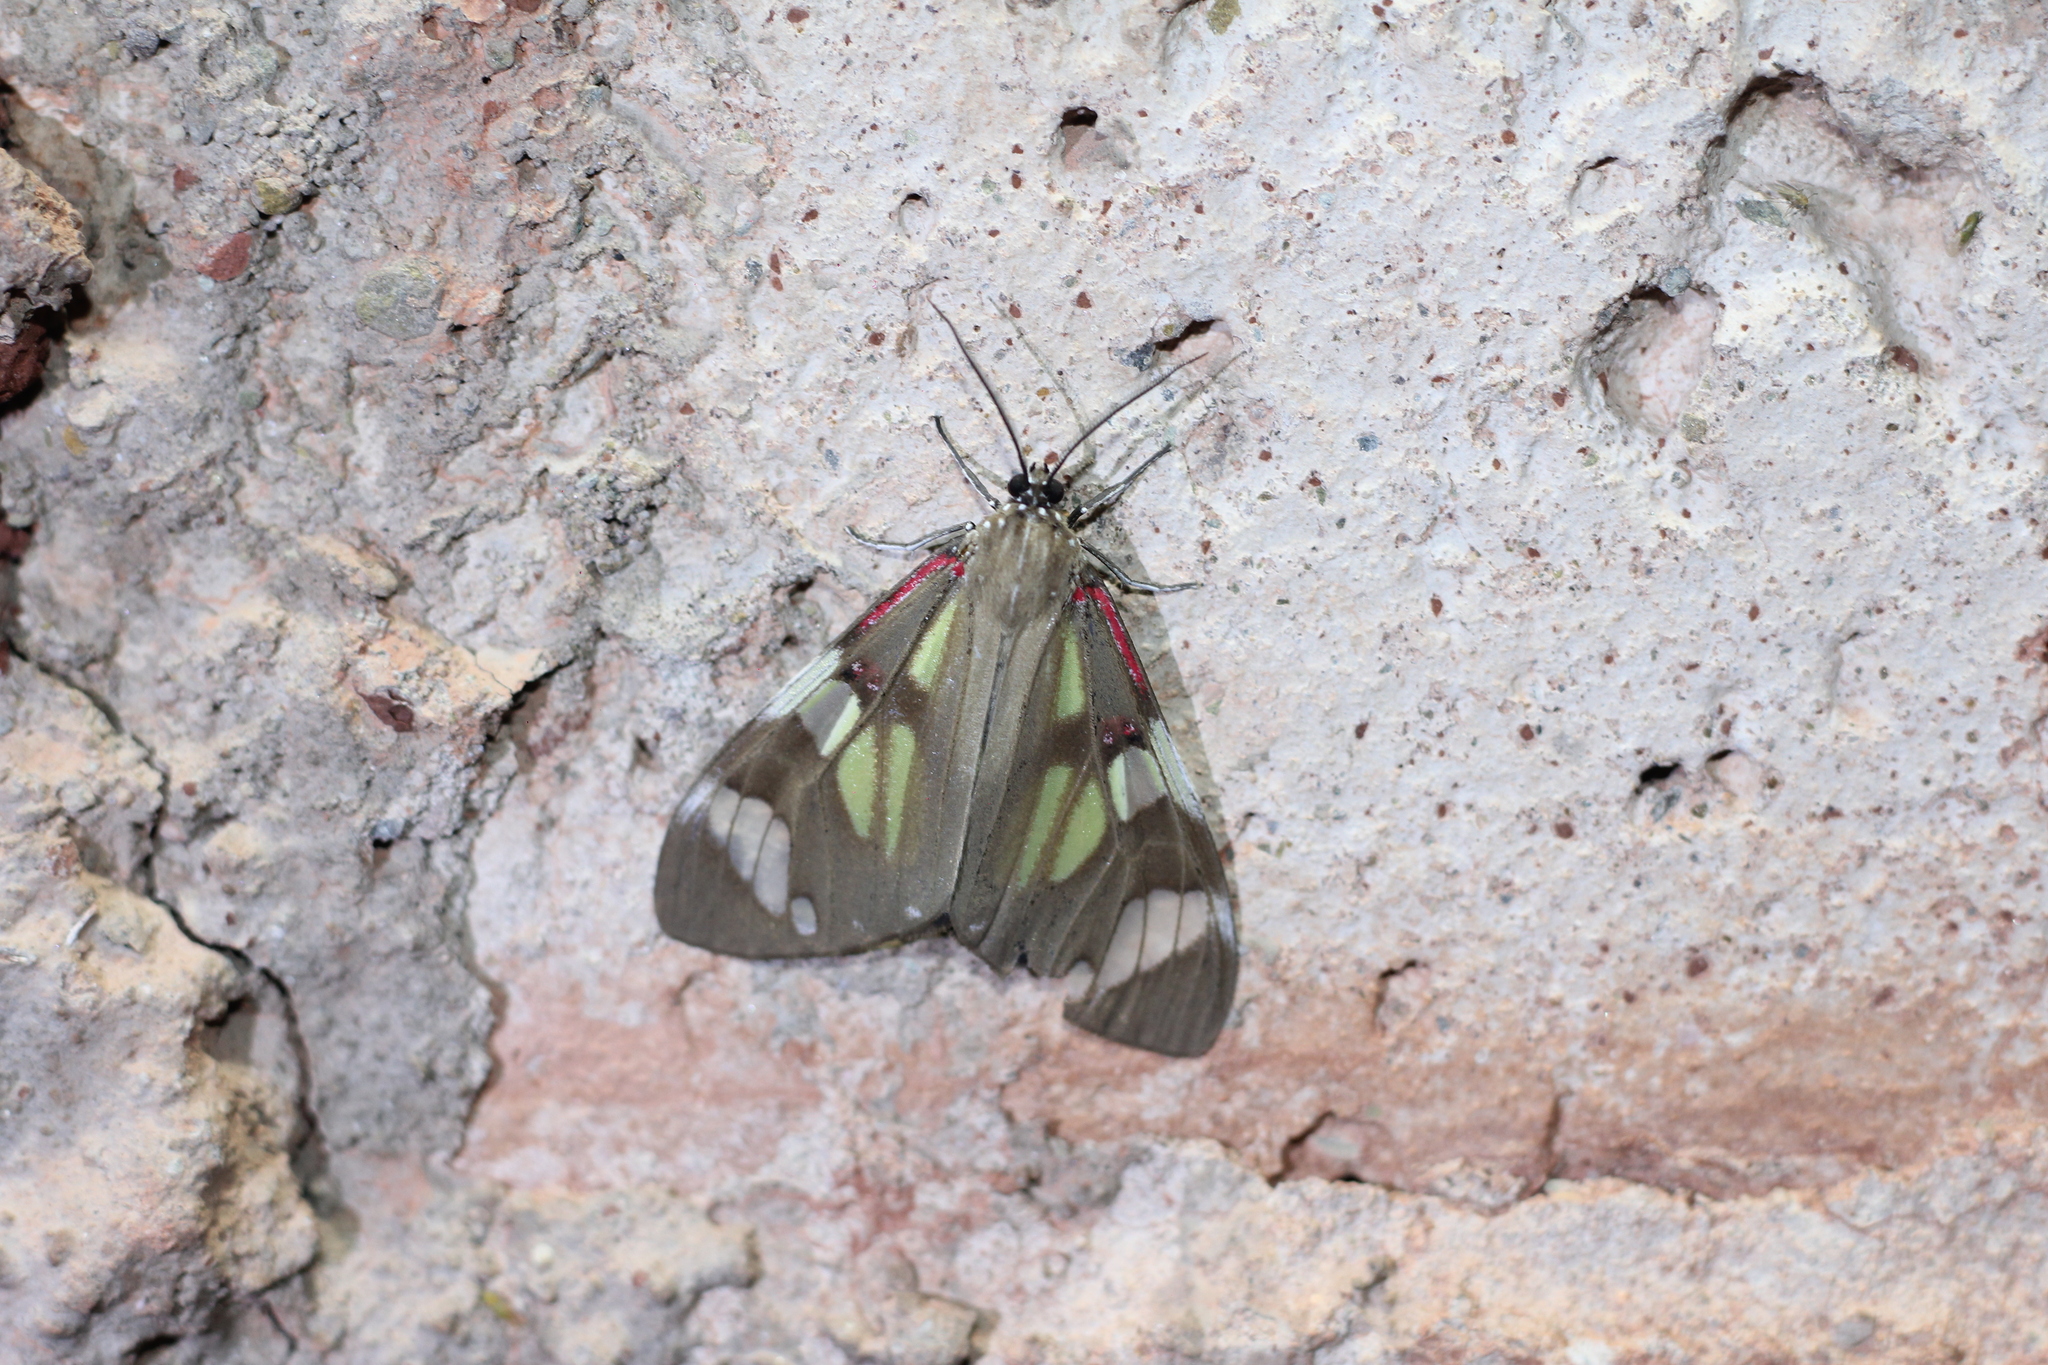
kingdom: Animalia
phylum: Arthropoda
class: Insecta
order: Lepidoptera
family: Erebidae
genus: Phaloe
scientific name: Phaloe cruenta
